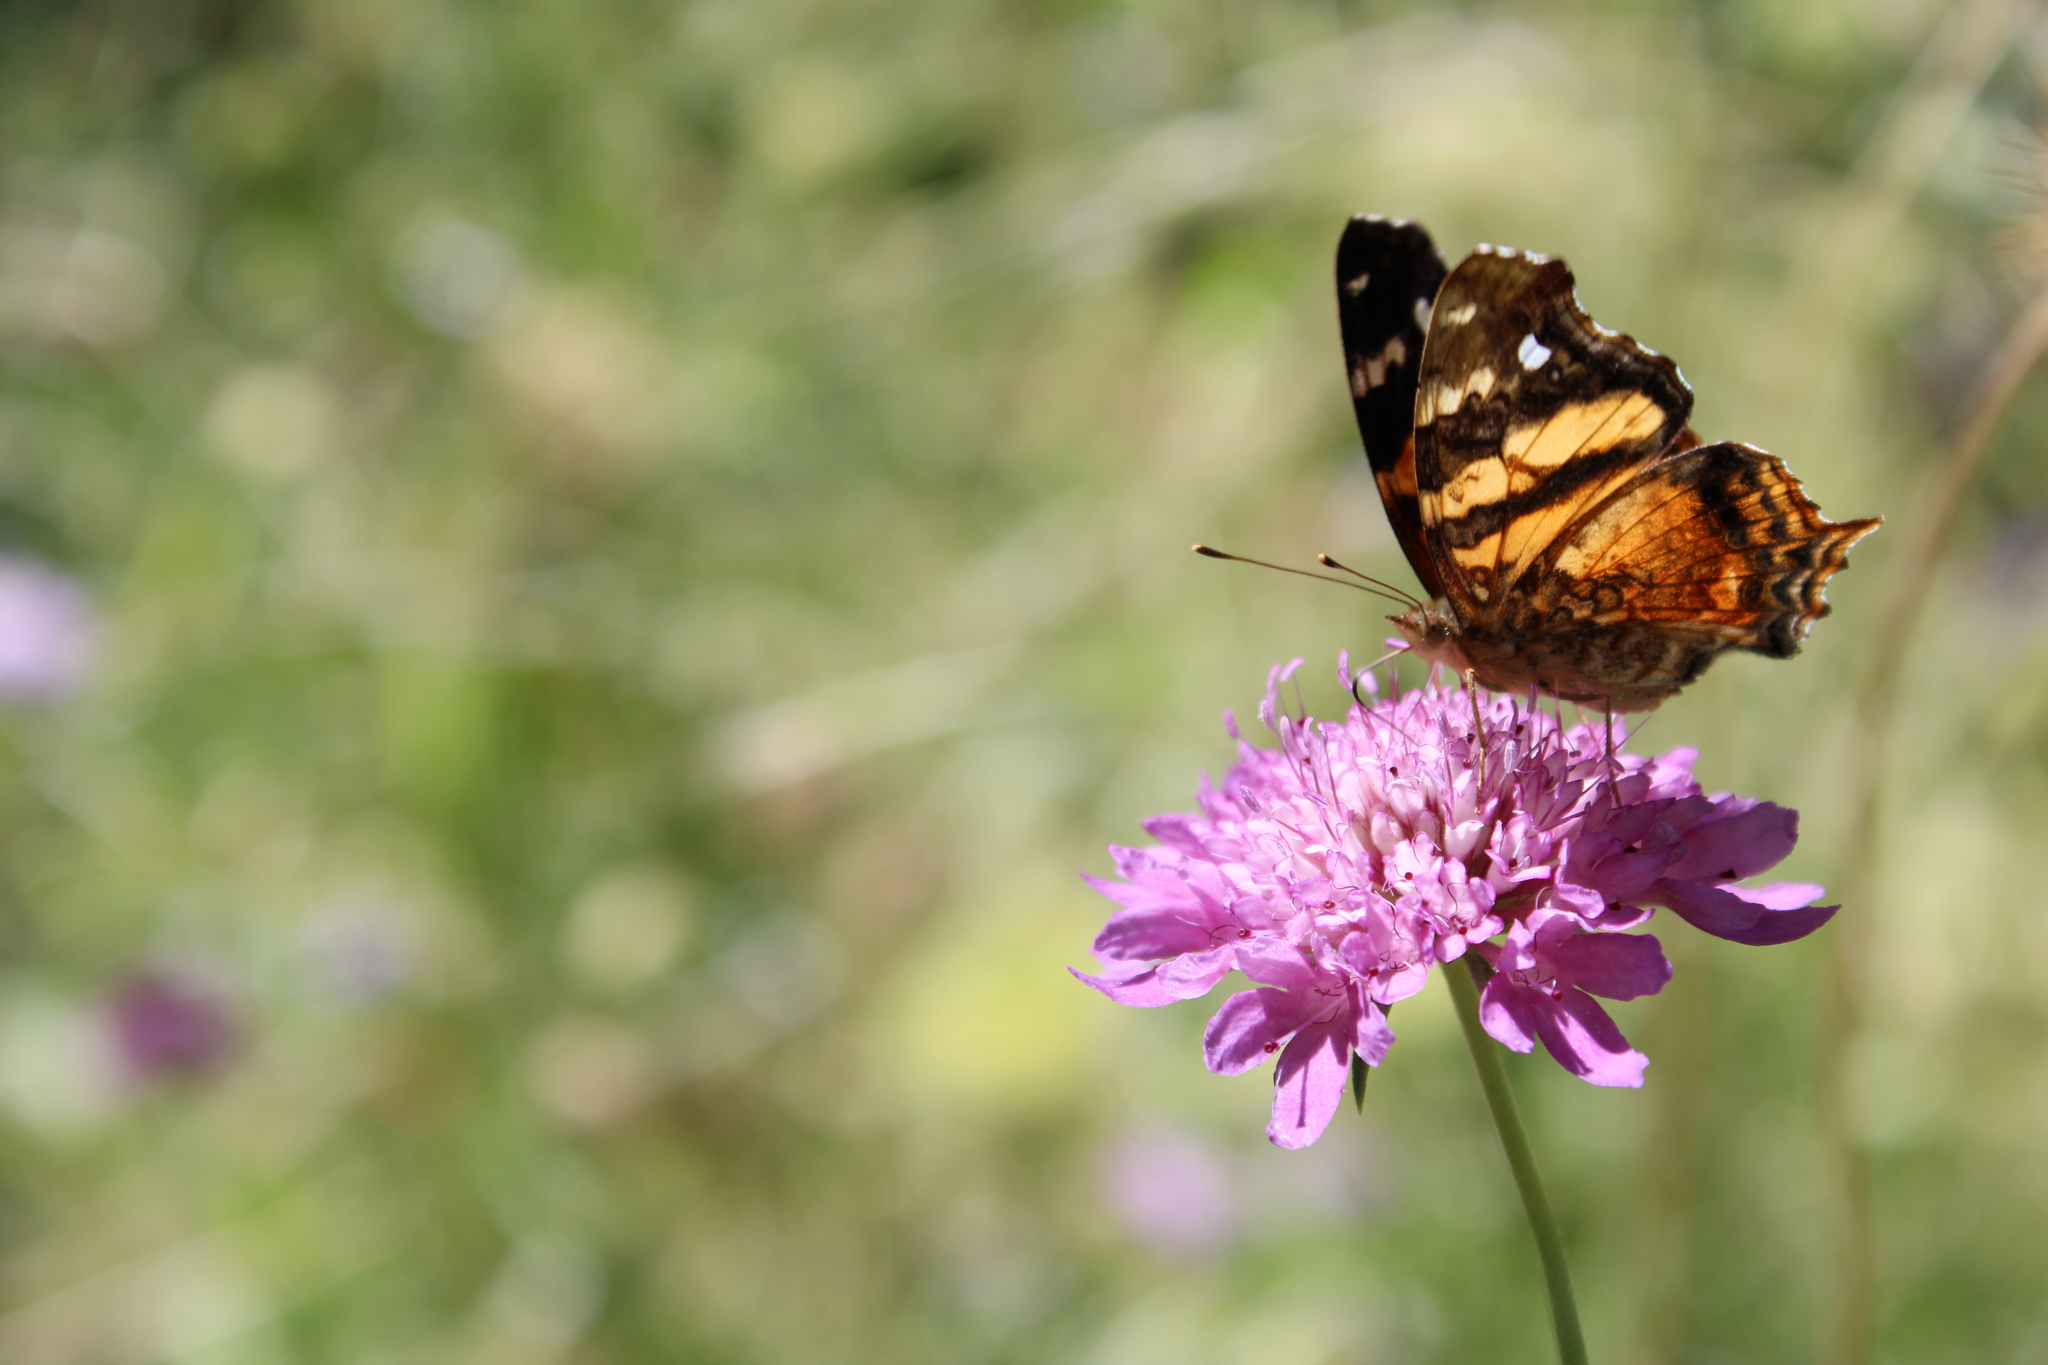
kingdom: Animalia
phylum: Arthropoda
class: Insecta
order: Lepidoptera
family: Nymphalidae
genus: Hypanartia
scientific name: Hypanartia bella
